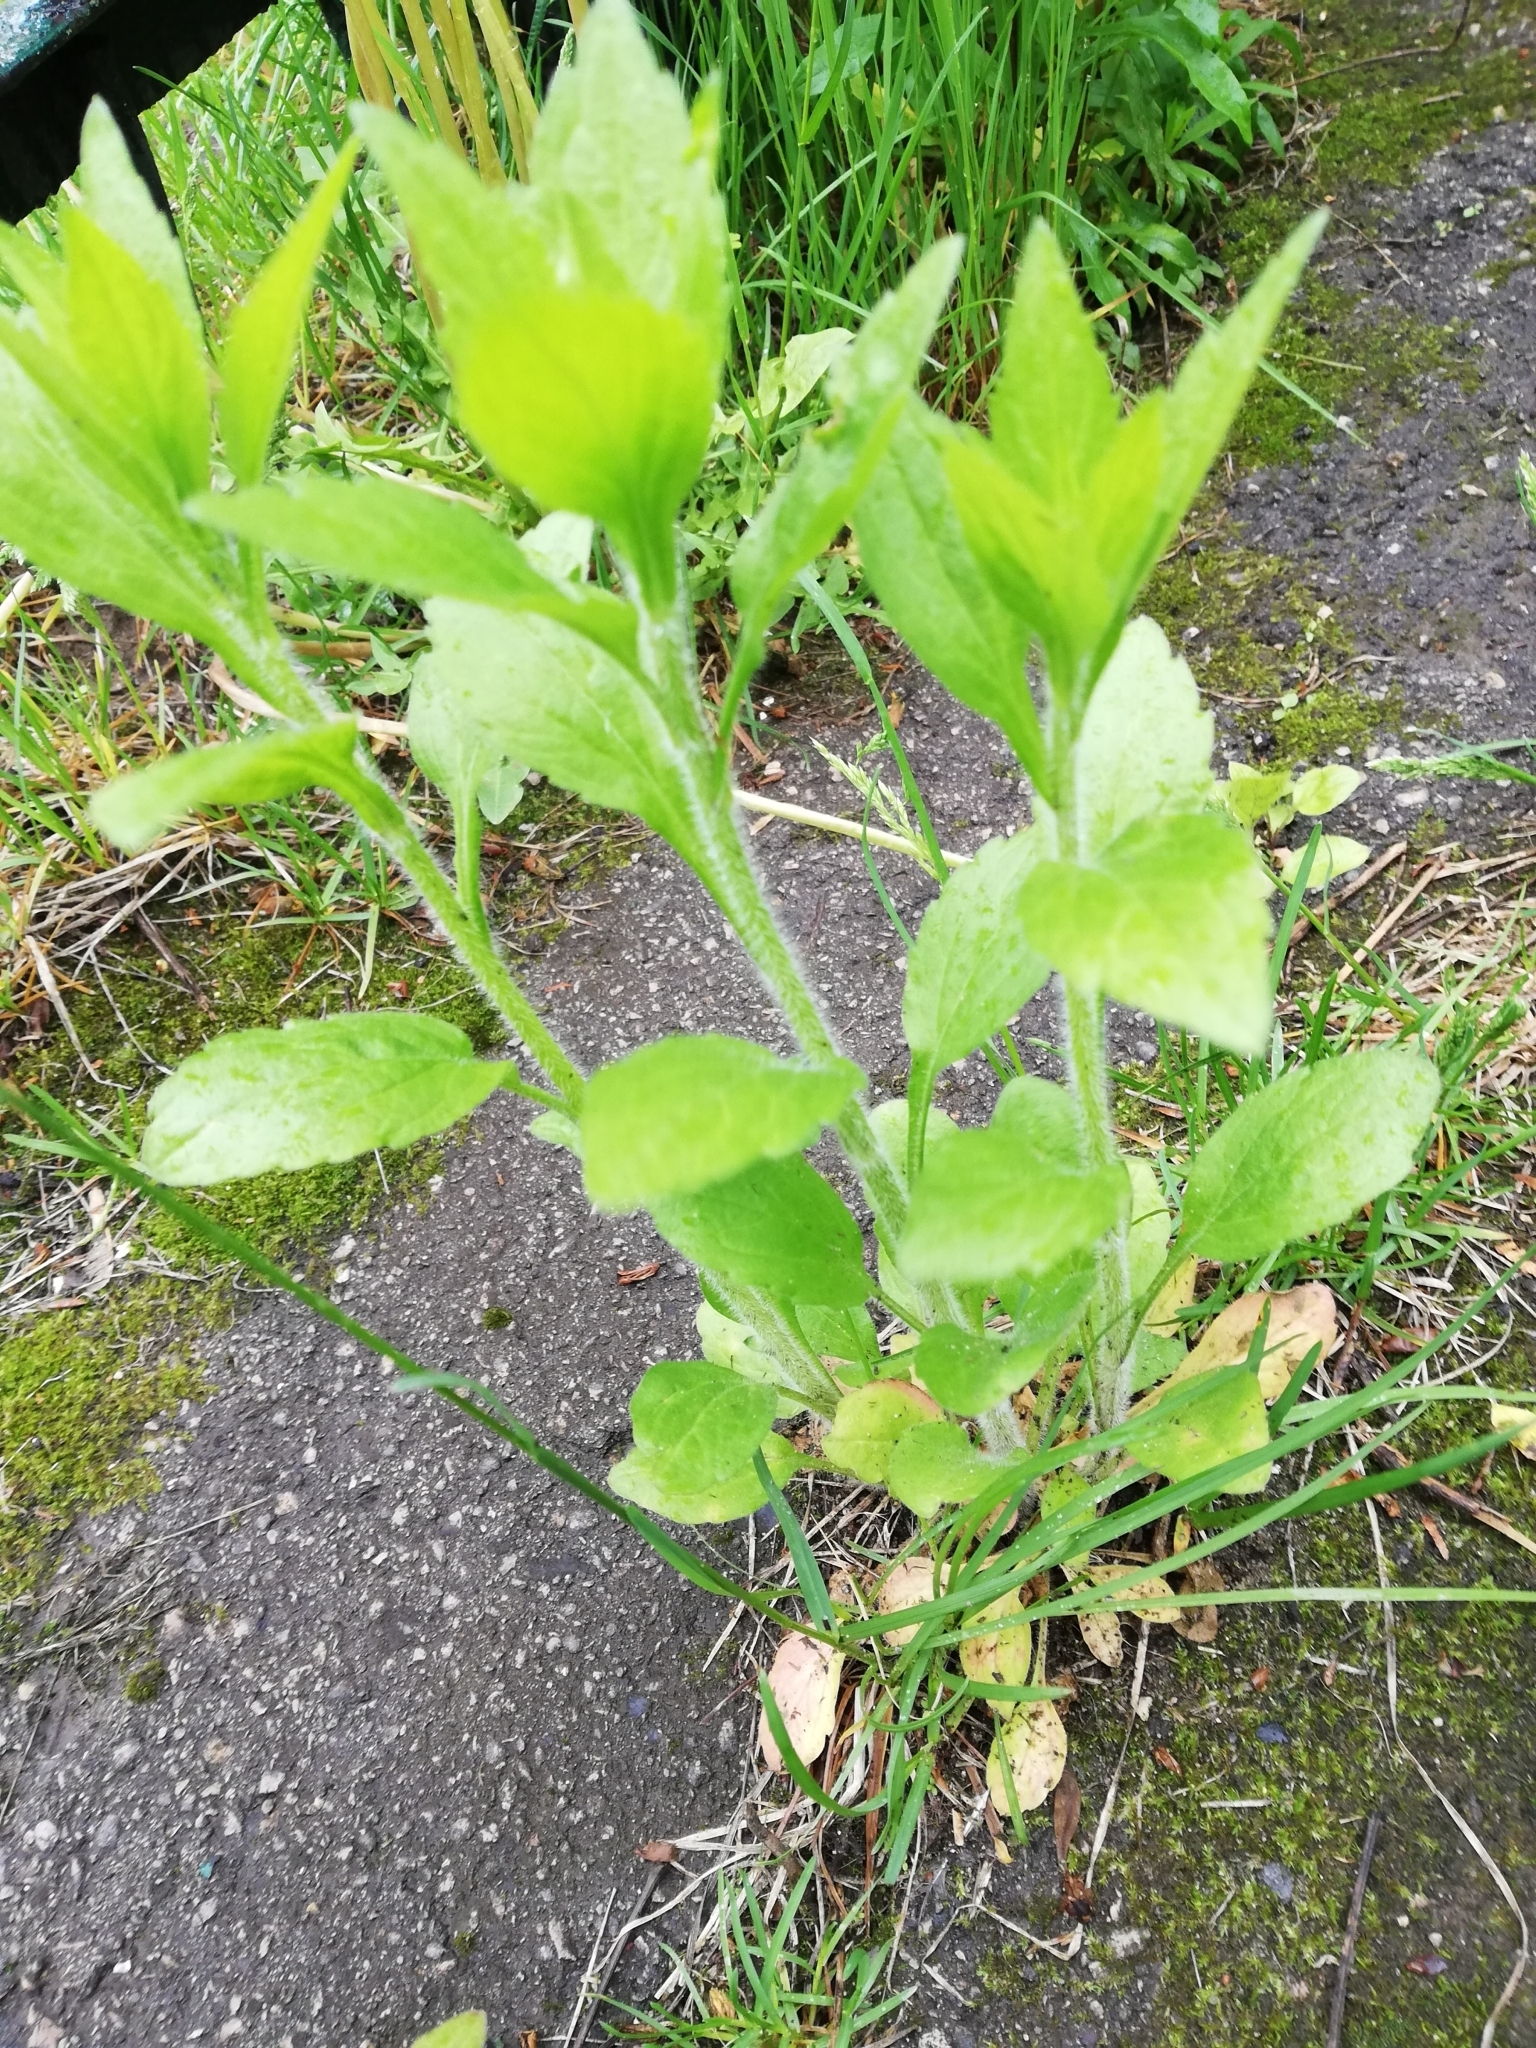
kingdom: Plantae
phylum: Tracheophyta
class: Magnoliopsida
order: Asterales
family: Asteraceae
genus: Erigeron
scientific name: Erigeron annuus
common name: Tall fleabane
